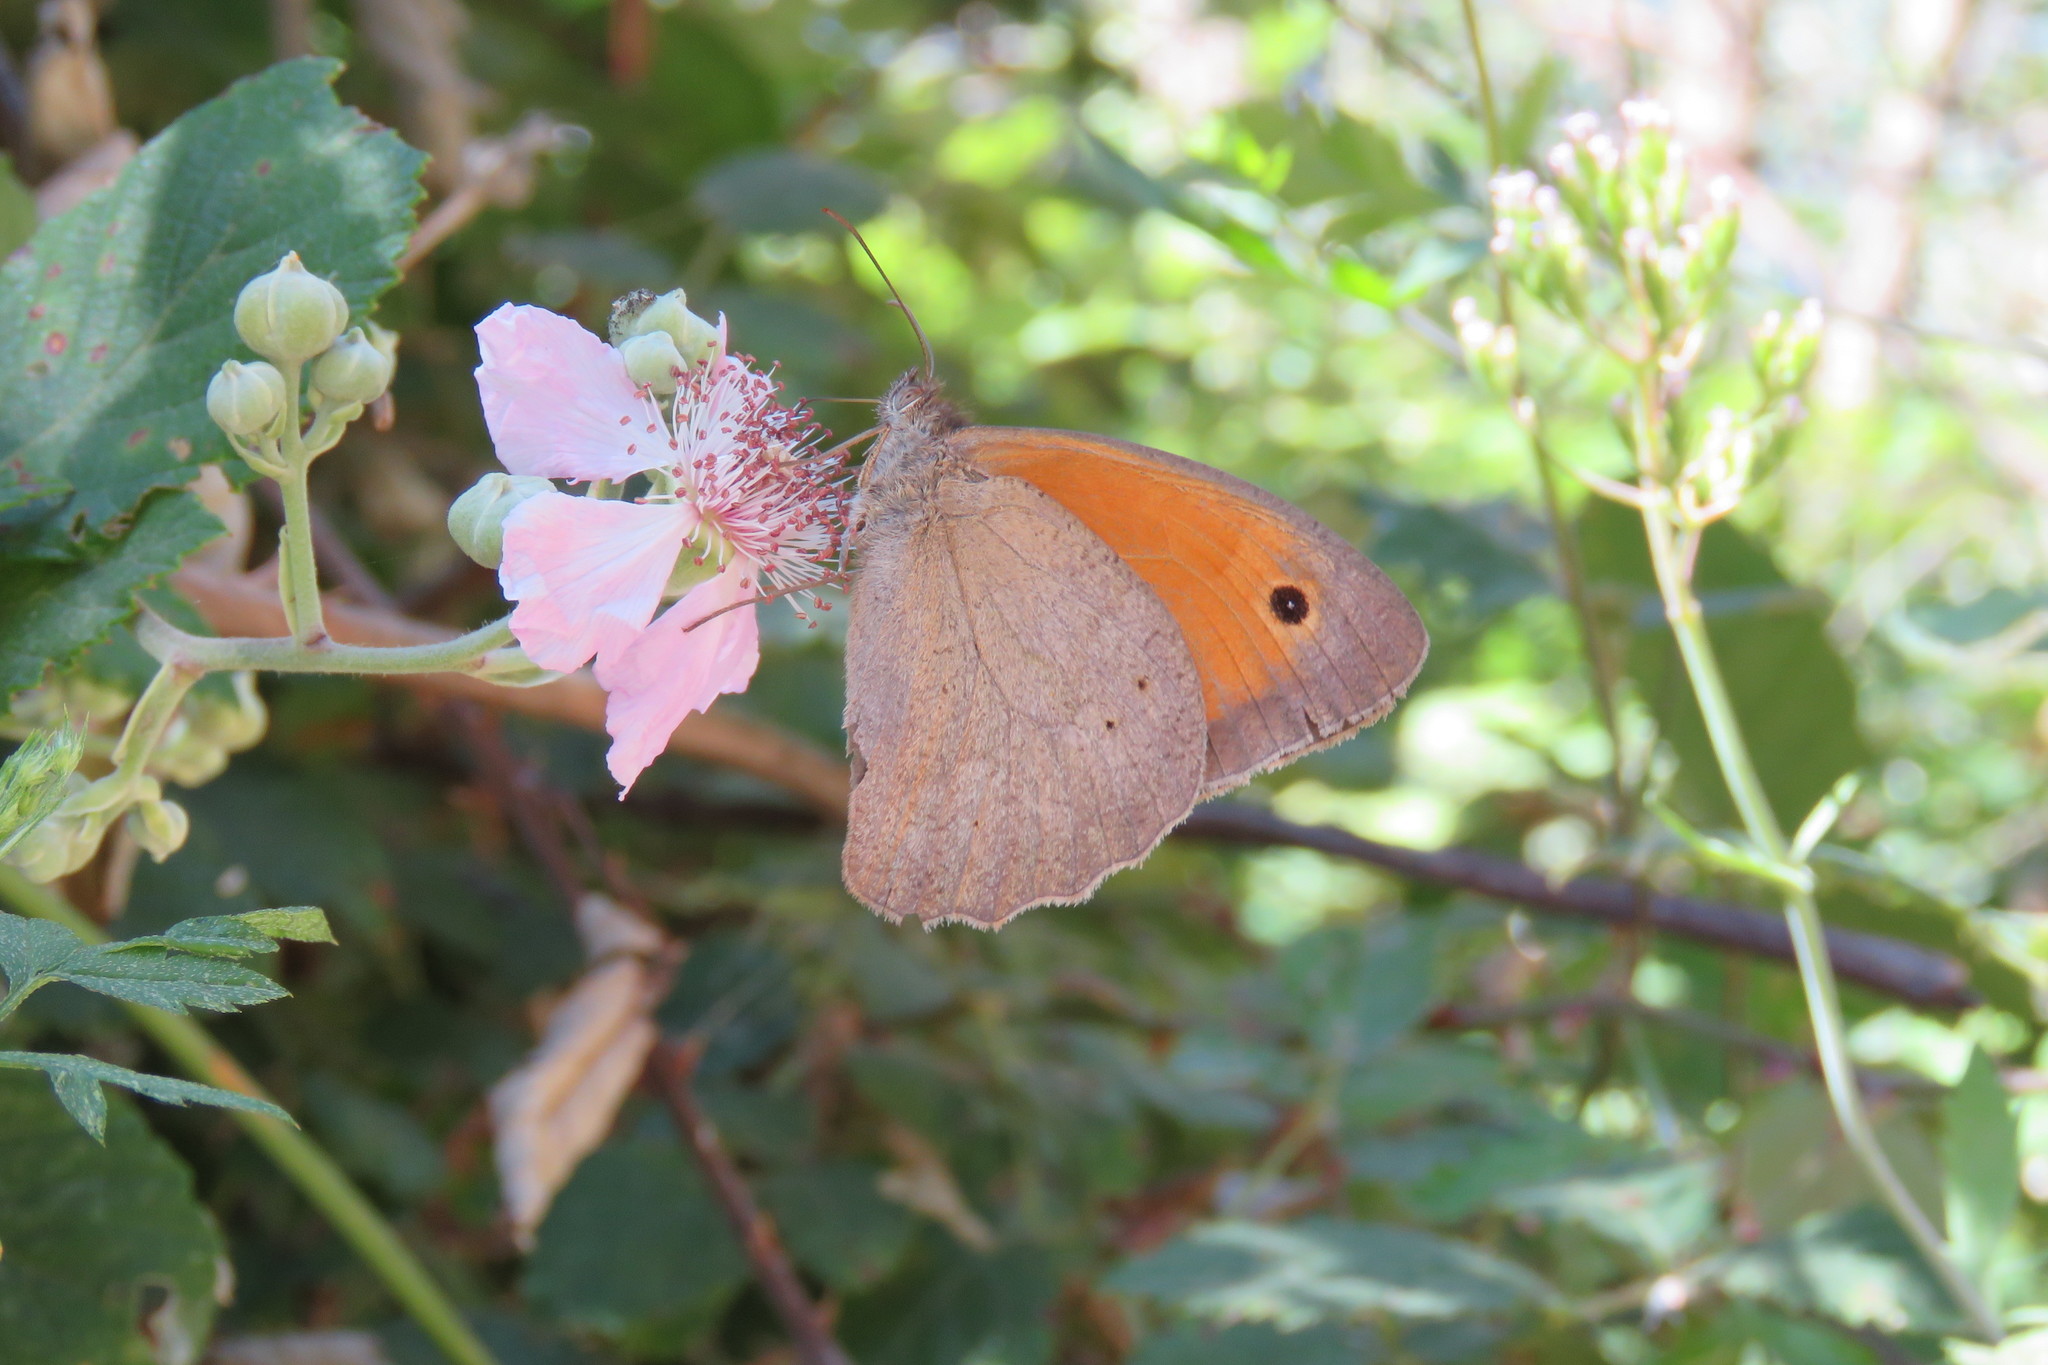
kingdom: Animalia
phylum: Arthropoda
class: Insecta
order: Lepidoptera
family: Nymphalidae
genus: Maniola
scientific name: Maniola jurtina
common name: Meadow brown
